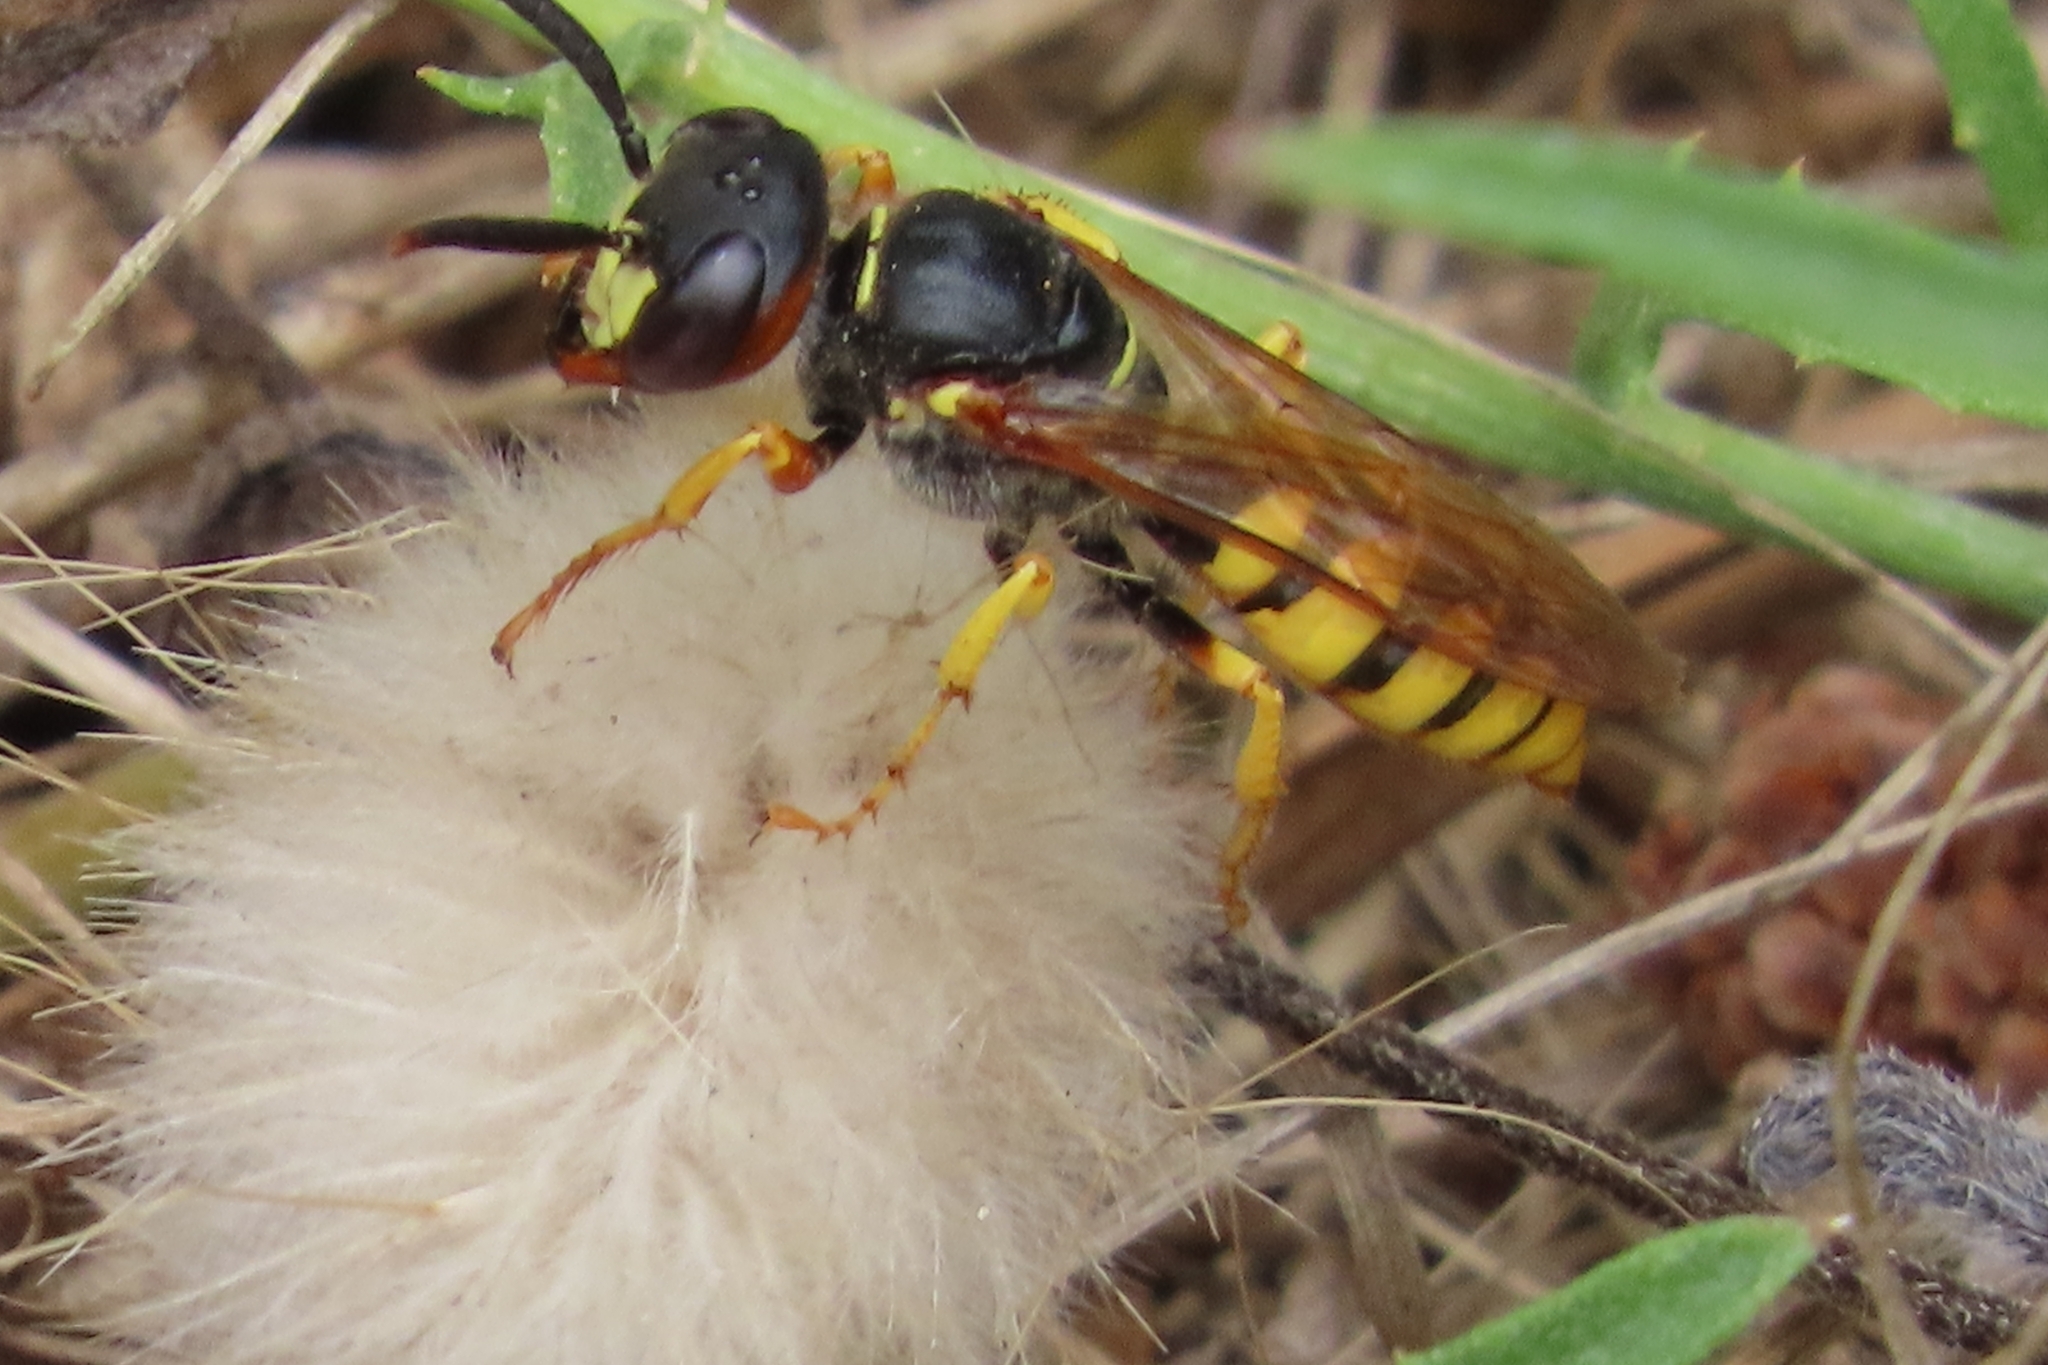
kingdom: Animalia
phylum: Arthropoda
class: Insecta
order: Hymenoptera
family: Crabronidae
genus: Philanthus
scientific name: Philanthus triangulum
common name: Bee wolf
